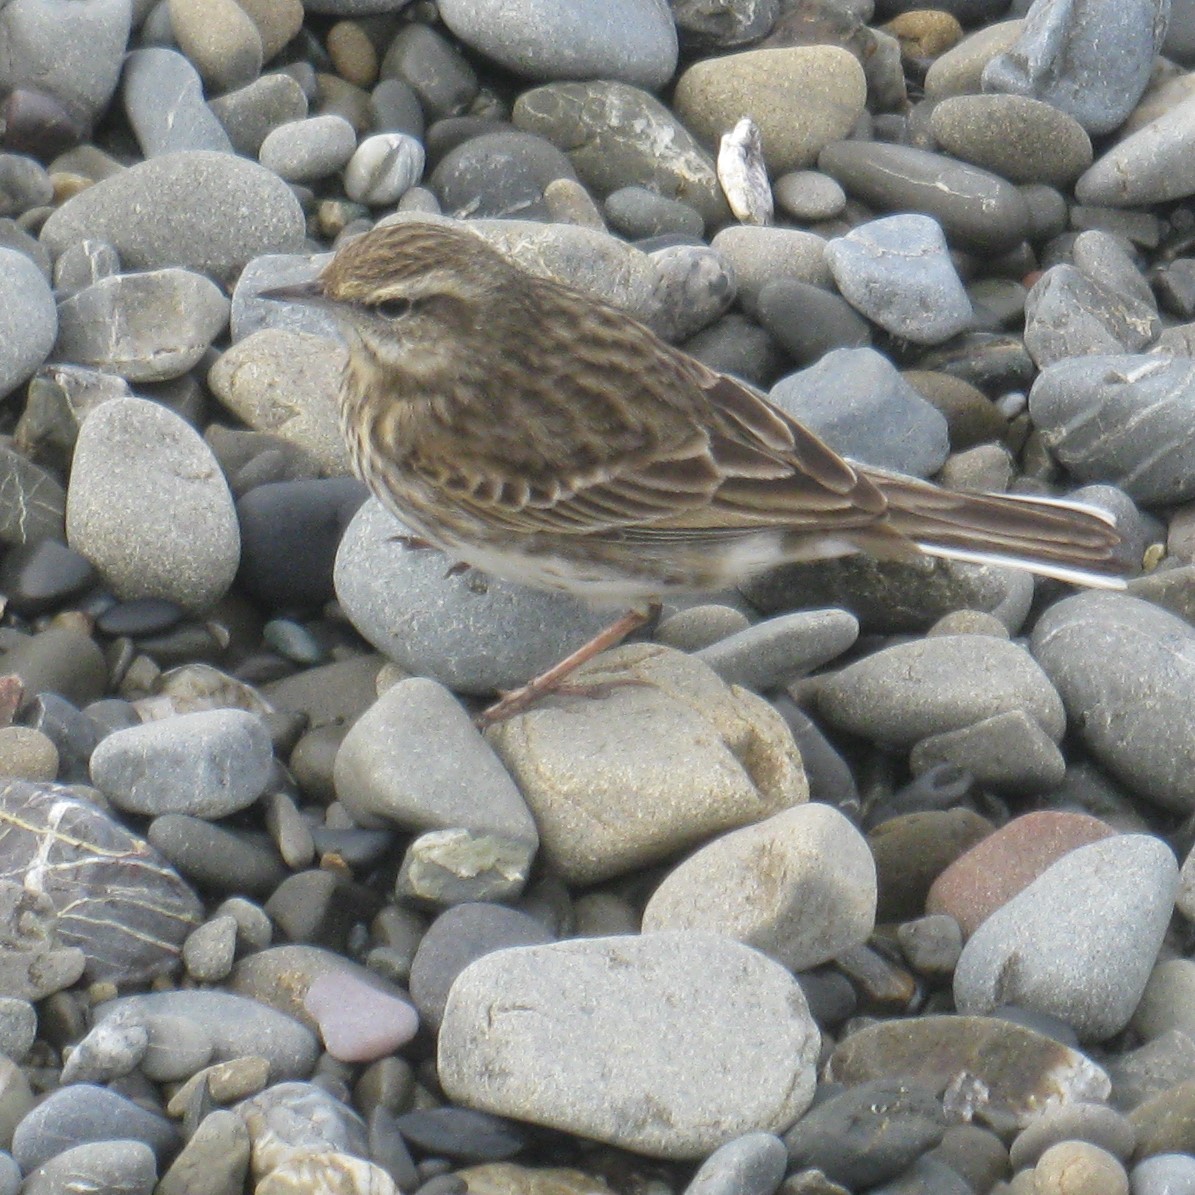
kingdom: Animalia
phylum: Chordata
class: Aves
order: Passeriformes
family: Motacillidae
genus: Anthus
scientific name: Anthus novaeseelandiae
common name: New zealand pipit
